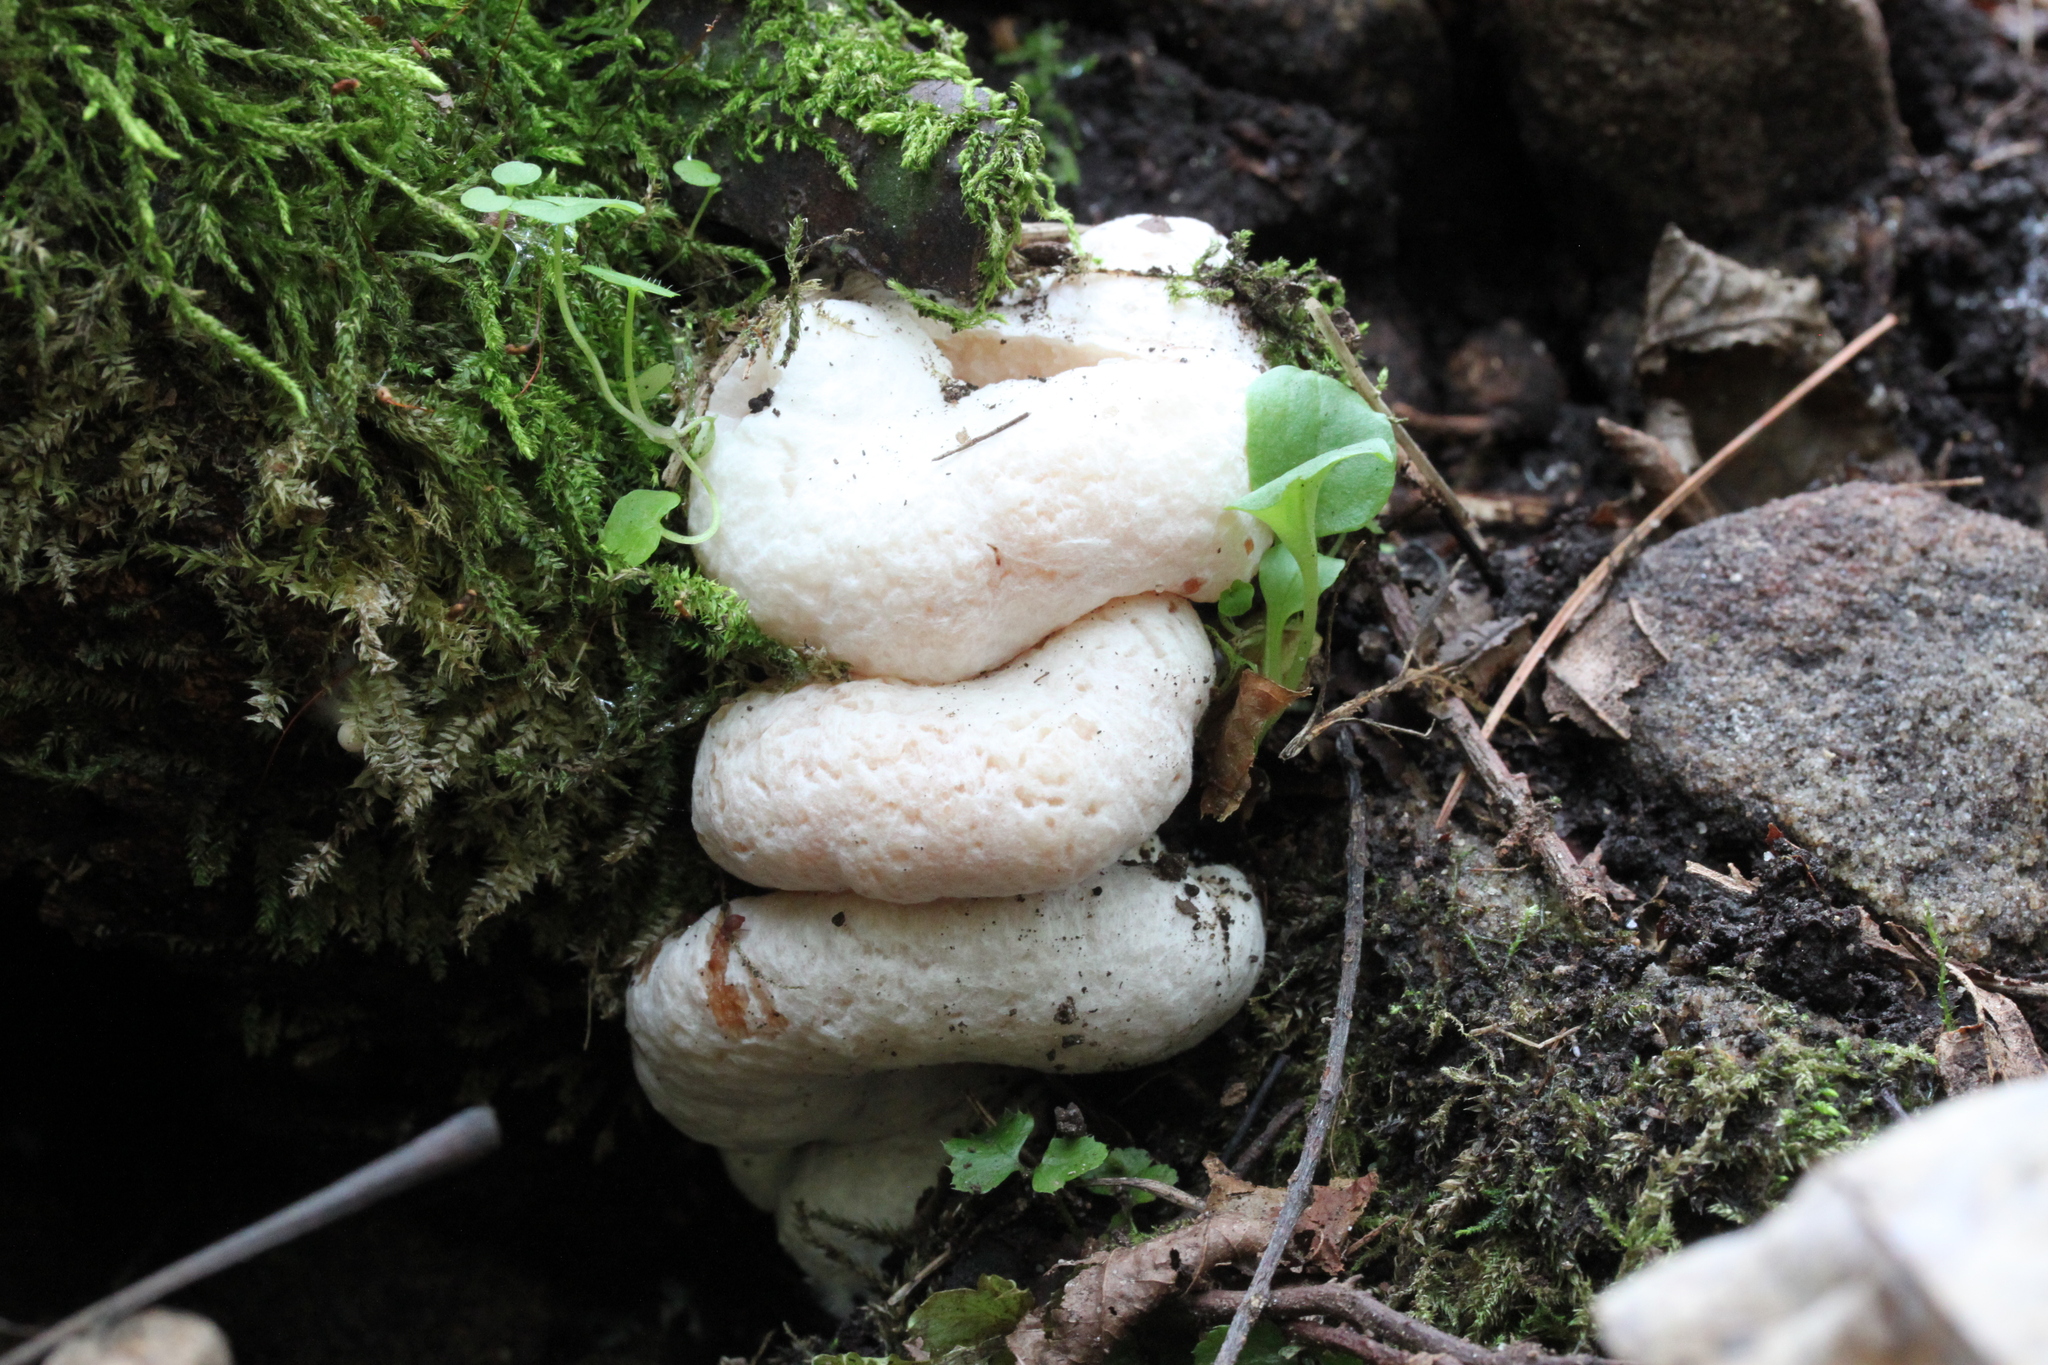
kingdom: Fungi
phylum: Basidiomycota
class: Agaricomycetes
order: Agaricales
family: Entolomataceae
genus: Entoloma
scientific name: Entoloma abortivum
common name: Aborted entoloma
